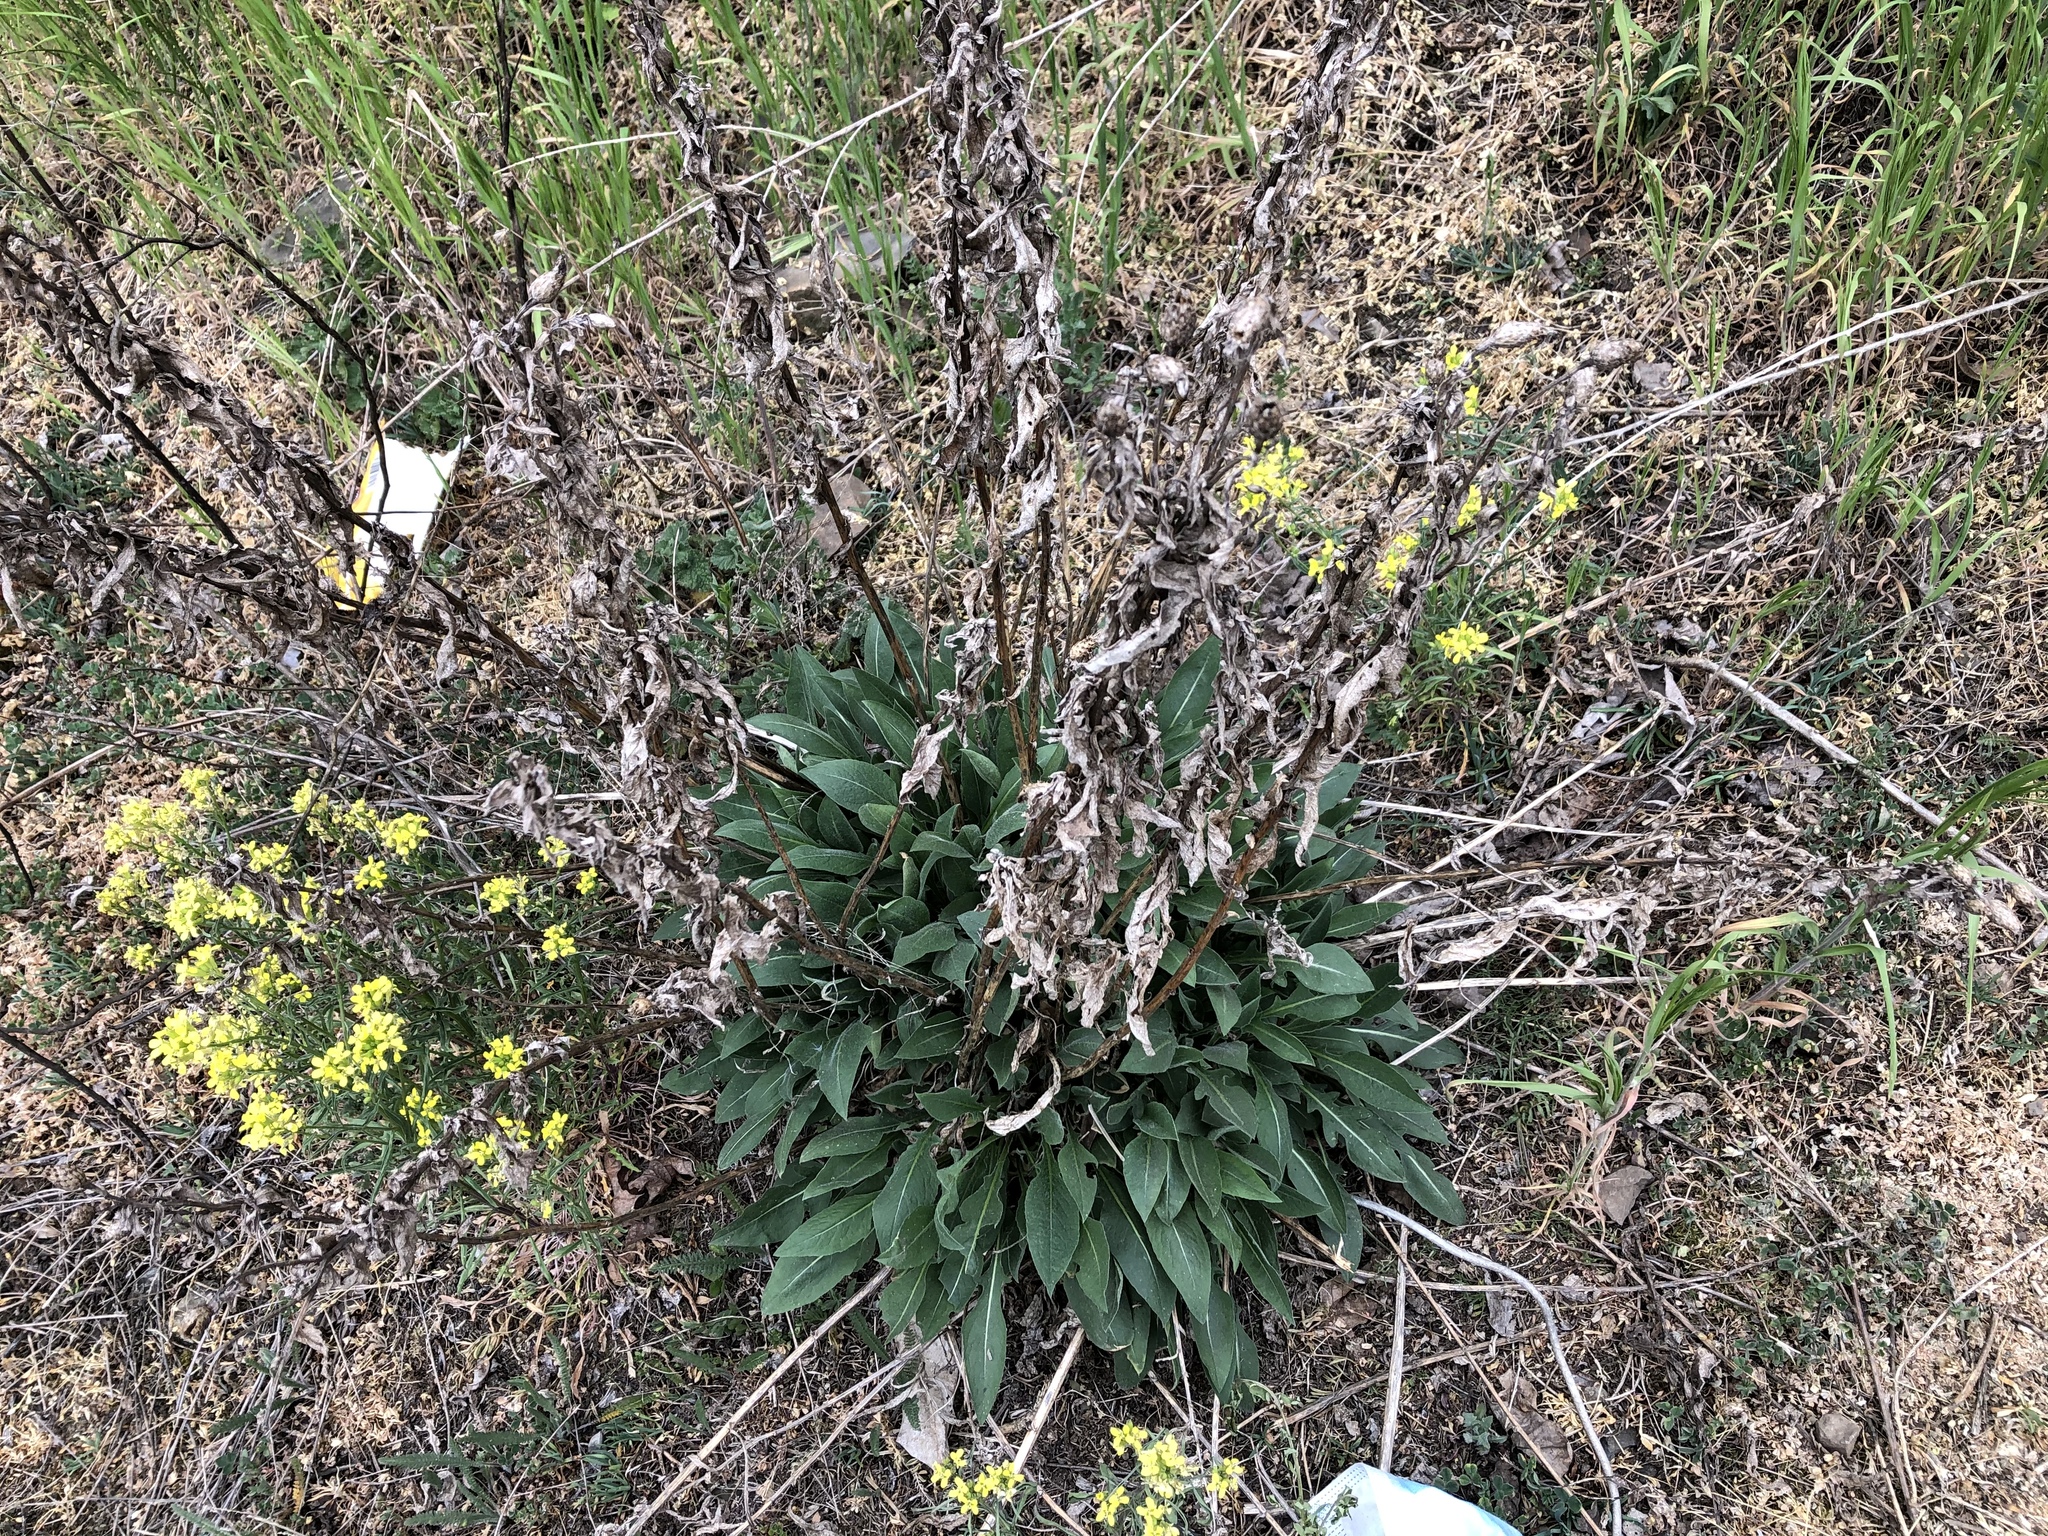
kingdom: Plantae
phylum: Tracheophyta
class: Magnoliopsida
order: Asterales
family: Asteraceae
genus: Centaurea
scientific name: Centaurea jacea
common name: Brown knapweed
